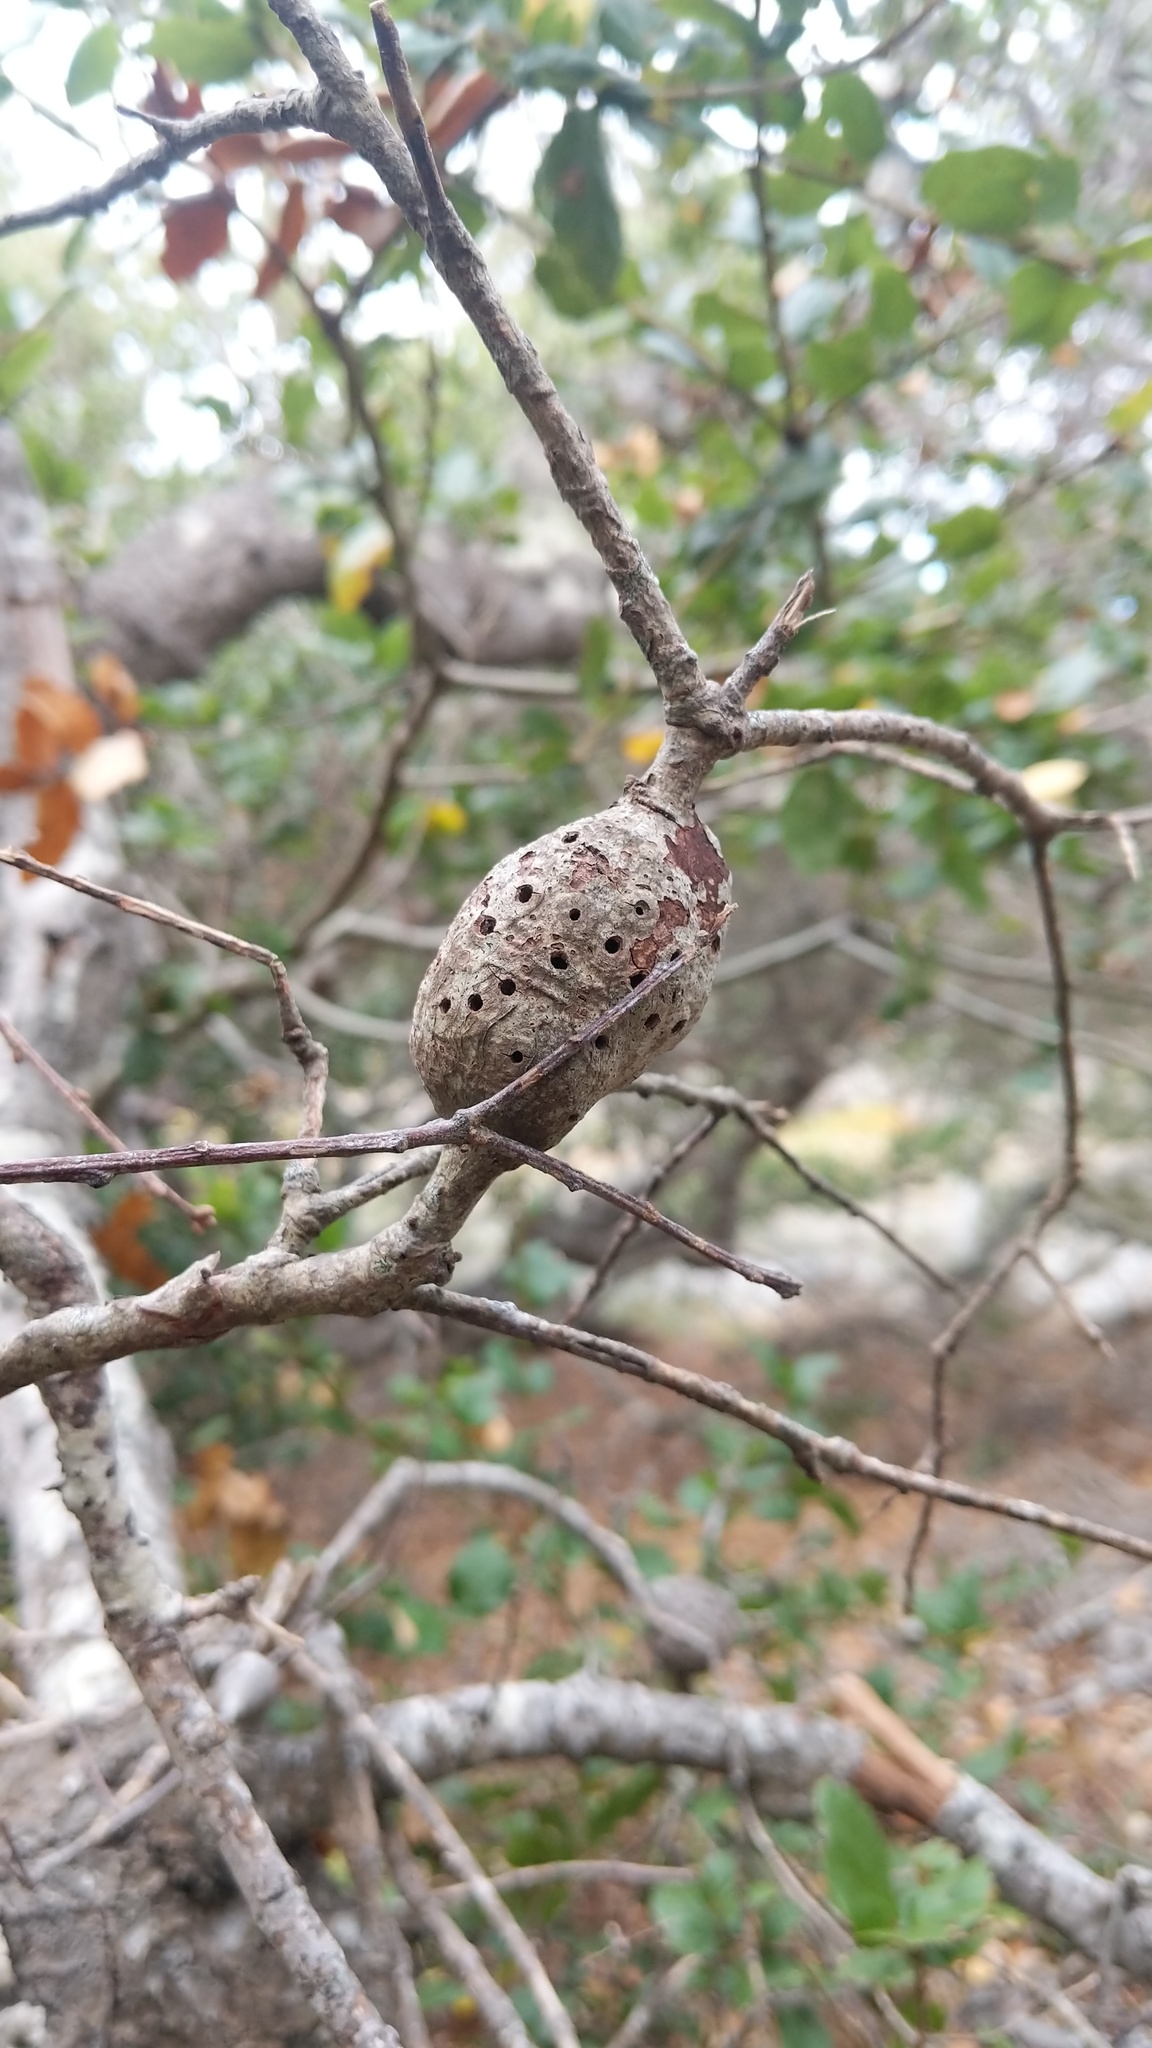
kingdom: Animalia
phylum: Arthropoda
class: Insecta
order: Hymenoptera
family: Cynipidae
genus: Callirhytis
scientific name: Callirhytis
